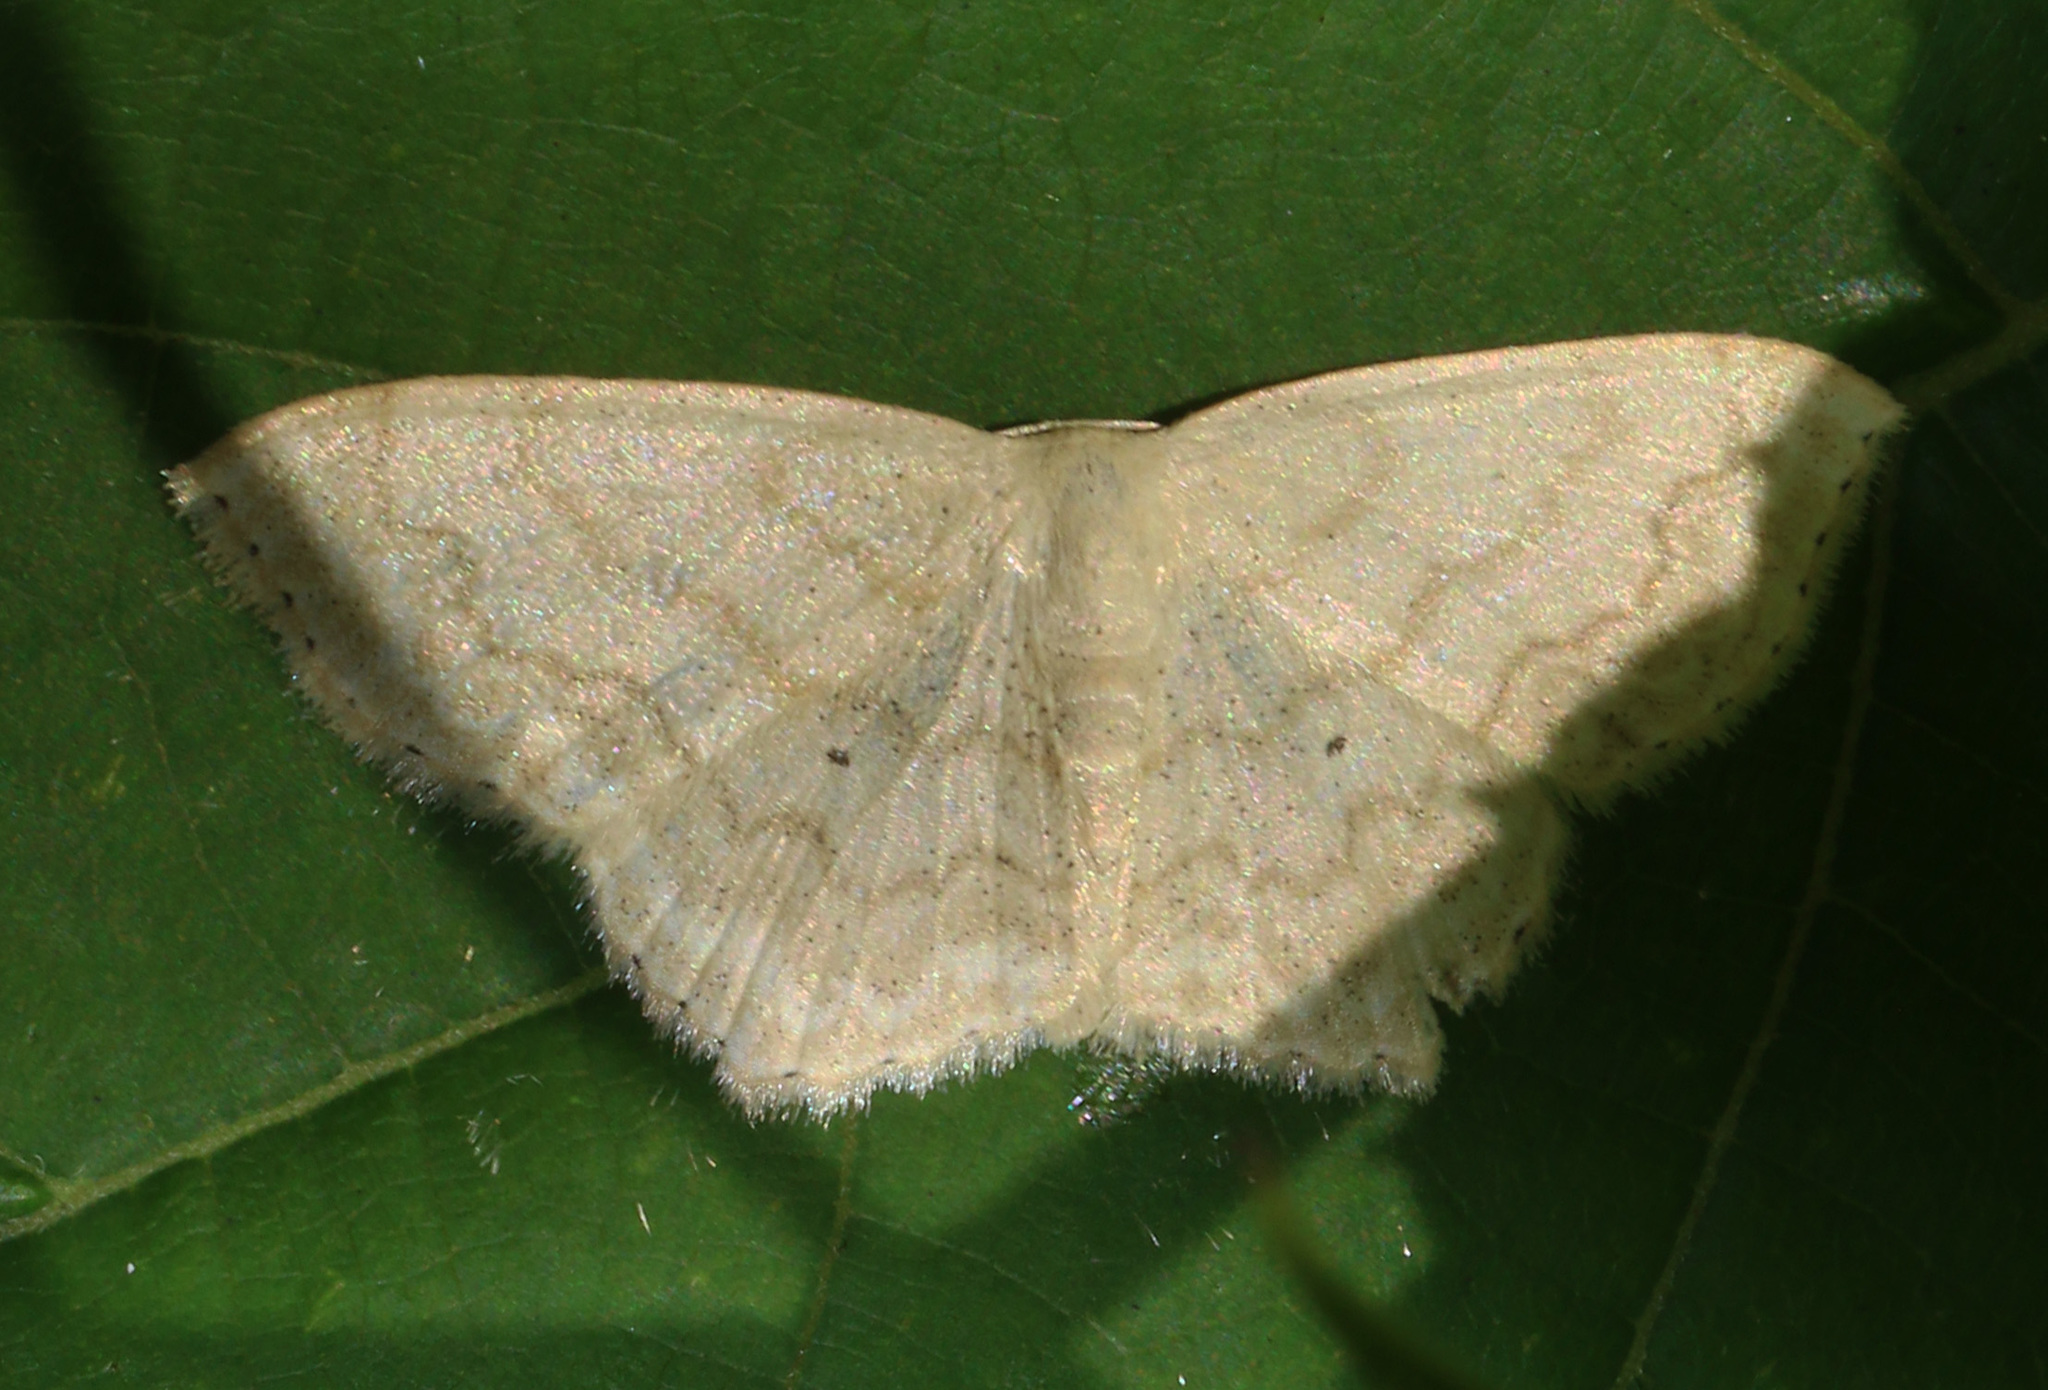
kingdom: Animalia
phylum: Arthropoda
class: Insecta
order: Lepidoptera
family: Geometridae
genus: Scopula
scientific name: Scopula limboundata
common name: Large lace border
